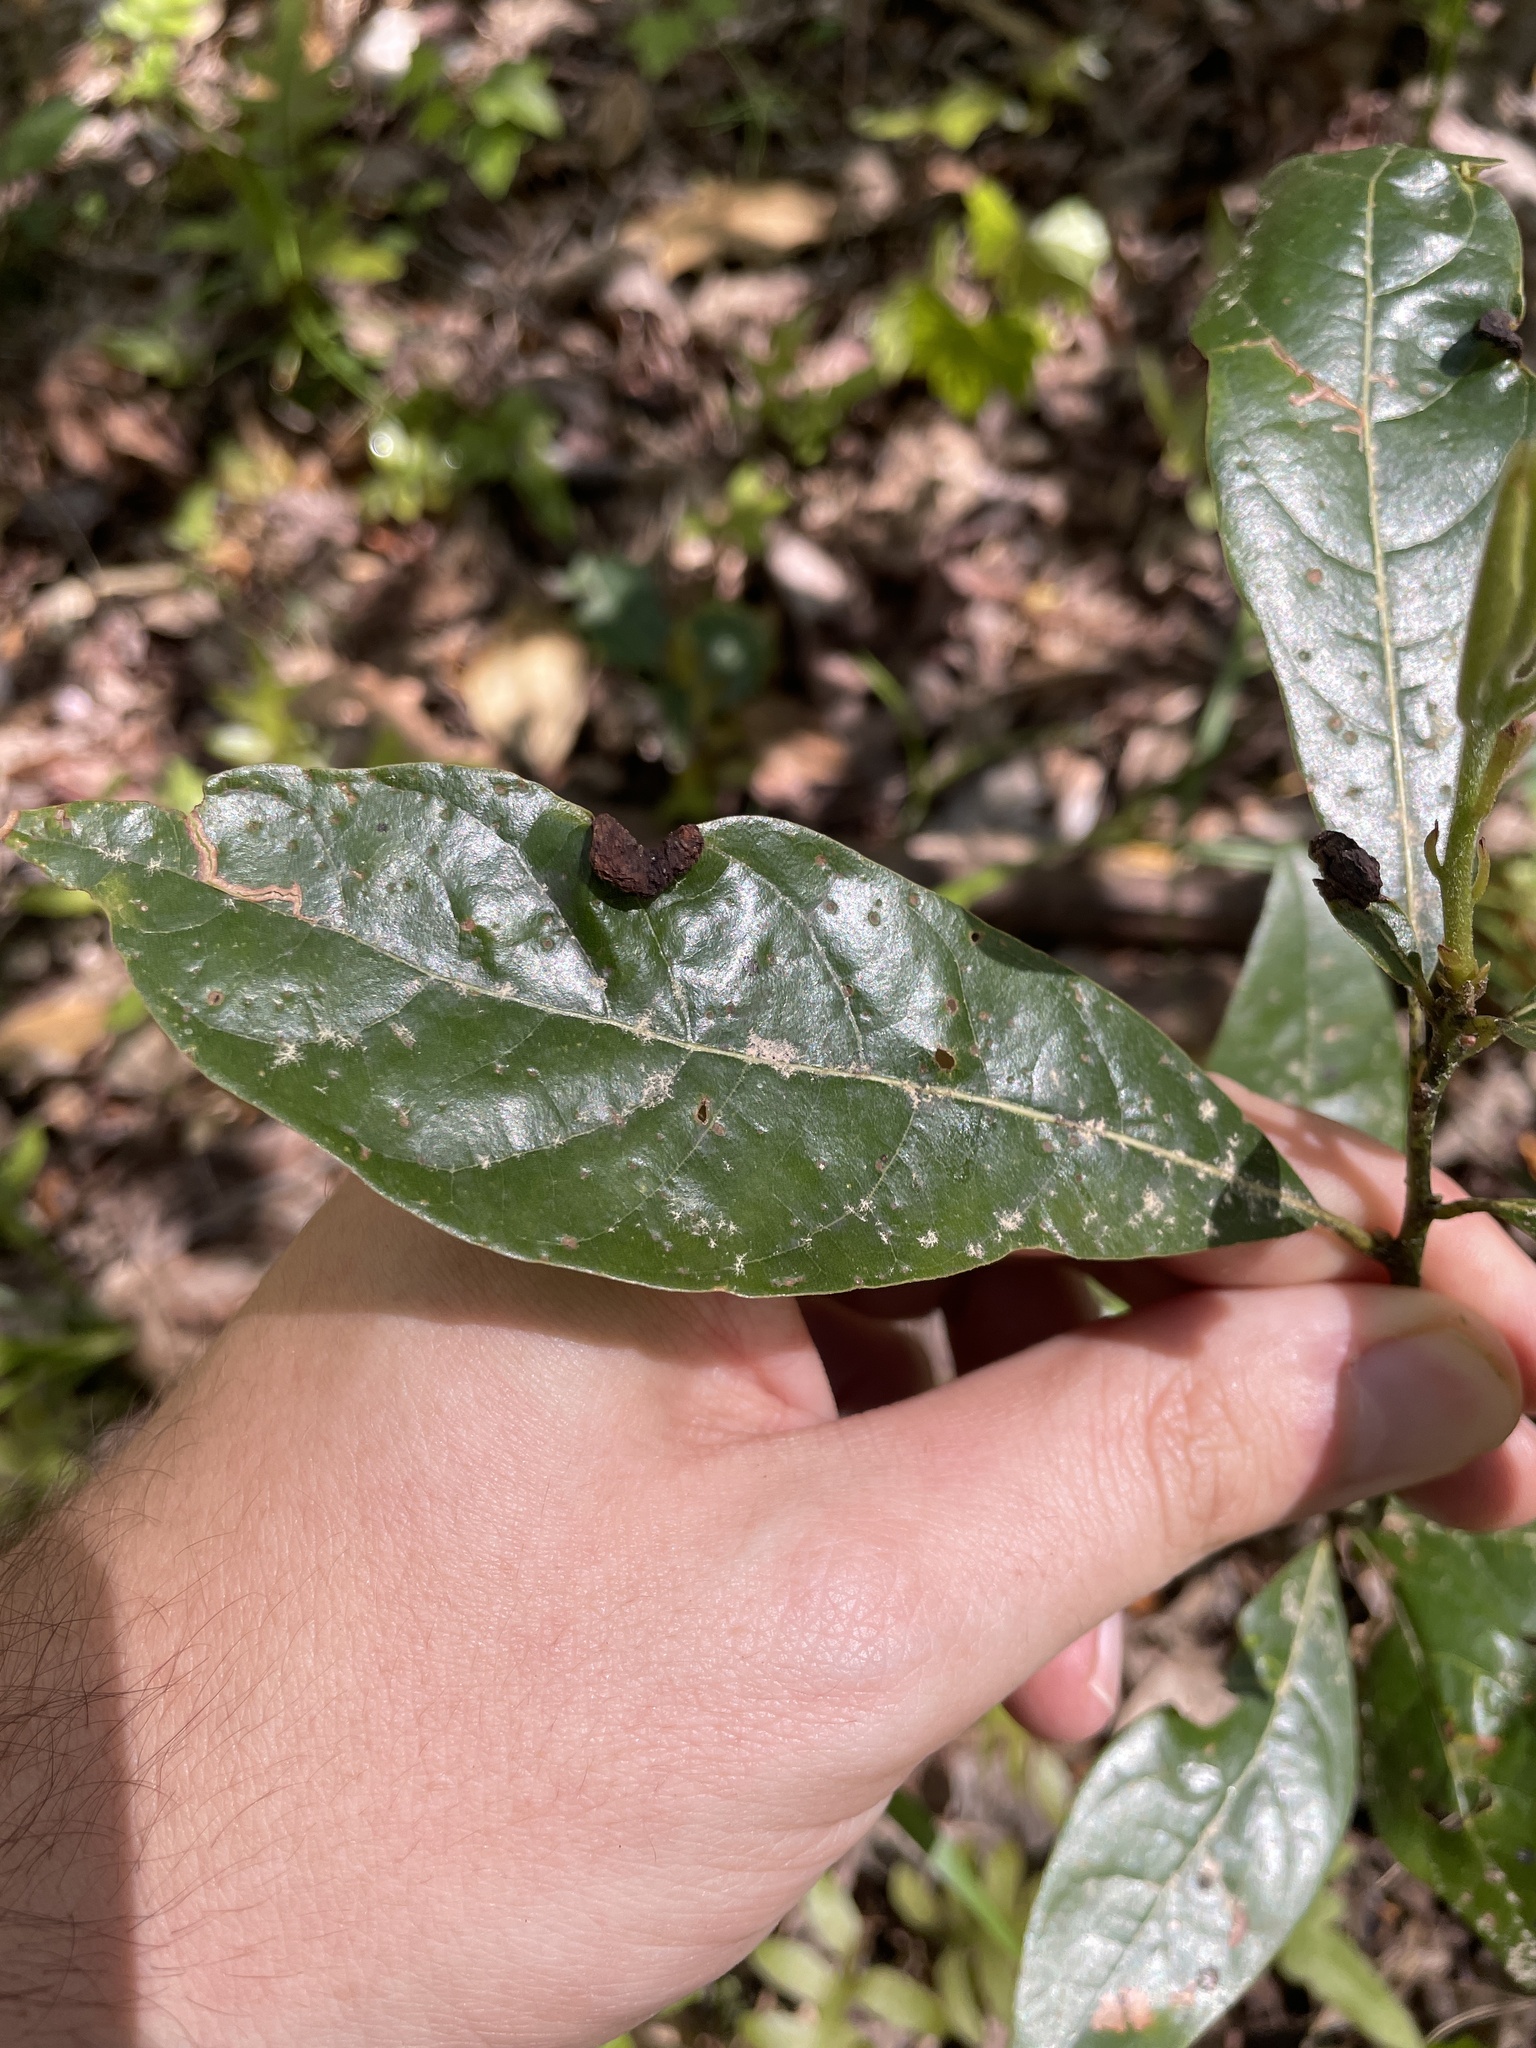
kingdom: Plantae
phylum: Tracheophyta
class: Magnoliopsida
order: Laurales
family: Lauraceae
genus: Persea
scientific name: Persea palustris
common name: Swampbay
